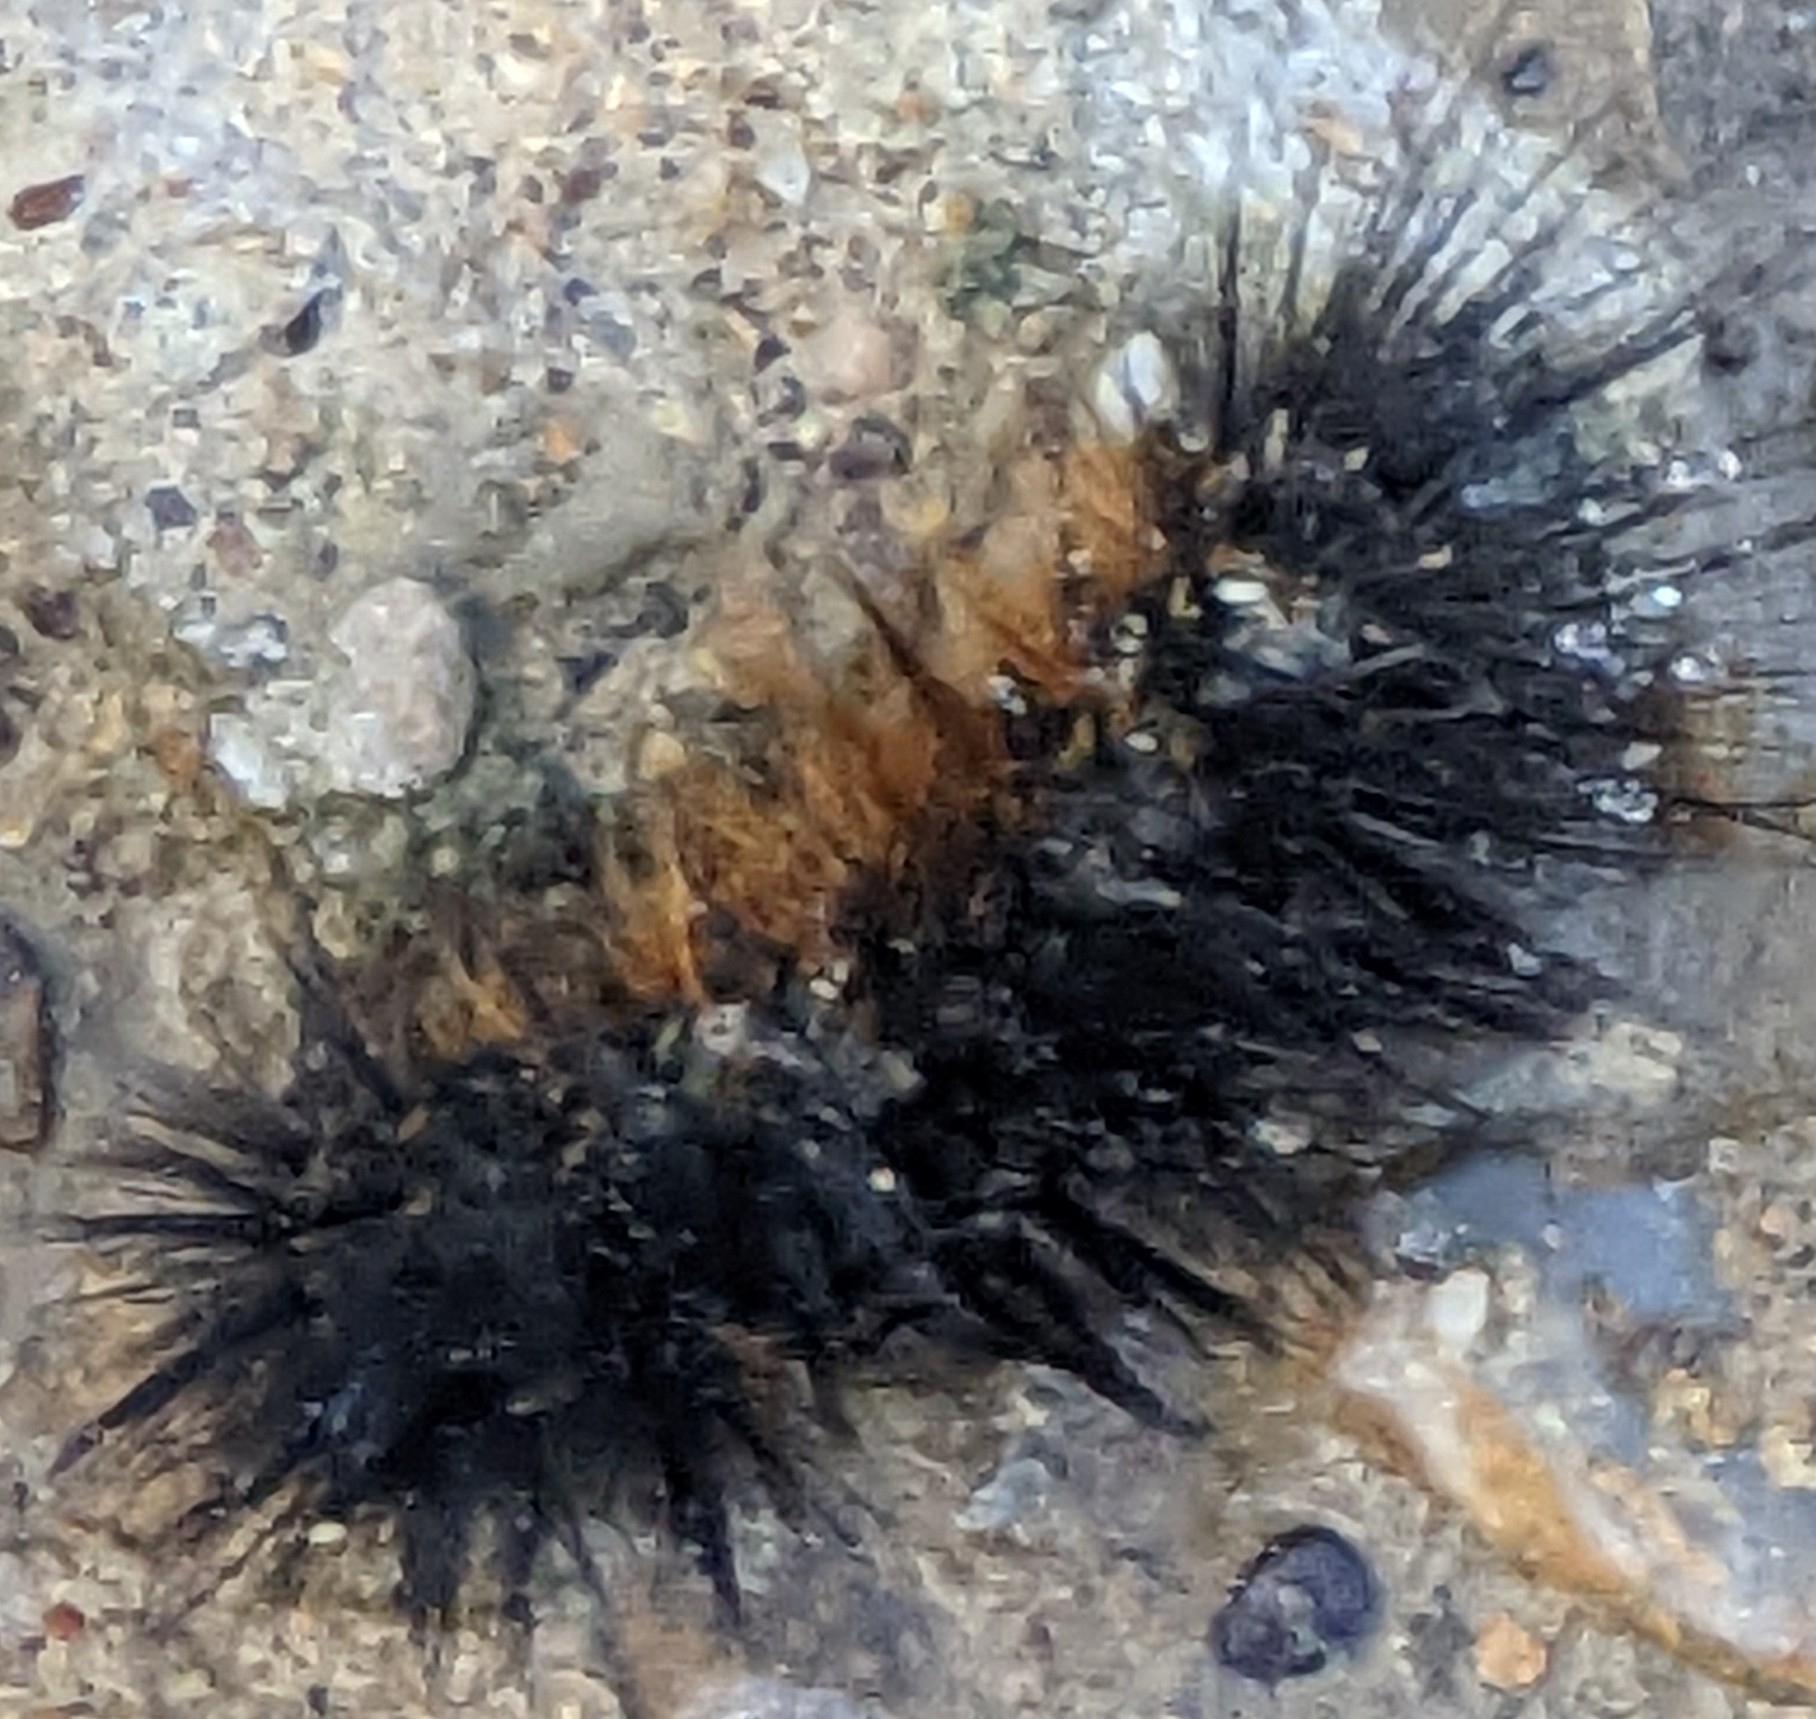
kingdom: Animalia
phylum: Arthropoda
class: Insecta
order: Lepidoptera
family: Erebidae
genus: Estigmene
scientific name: Estigmene acrea
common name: Salt marsh moth
